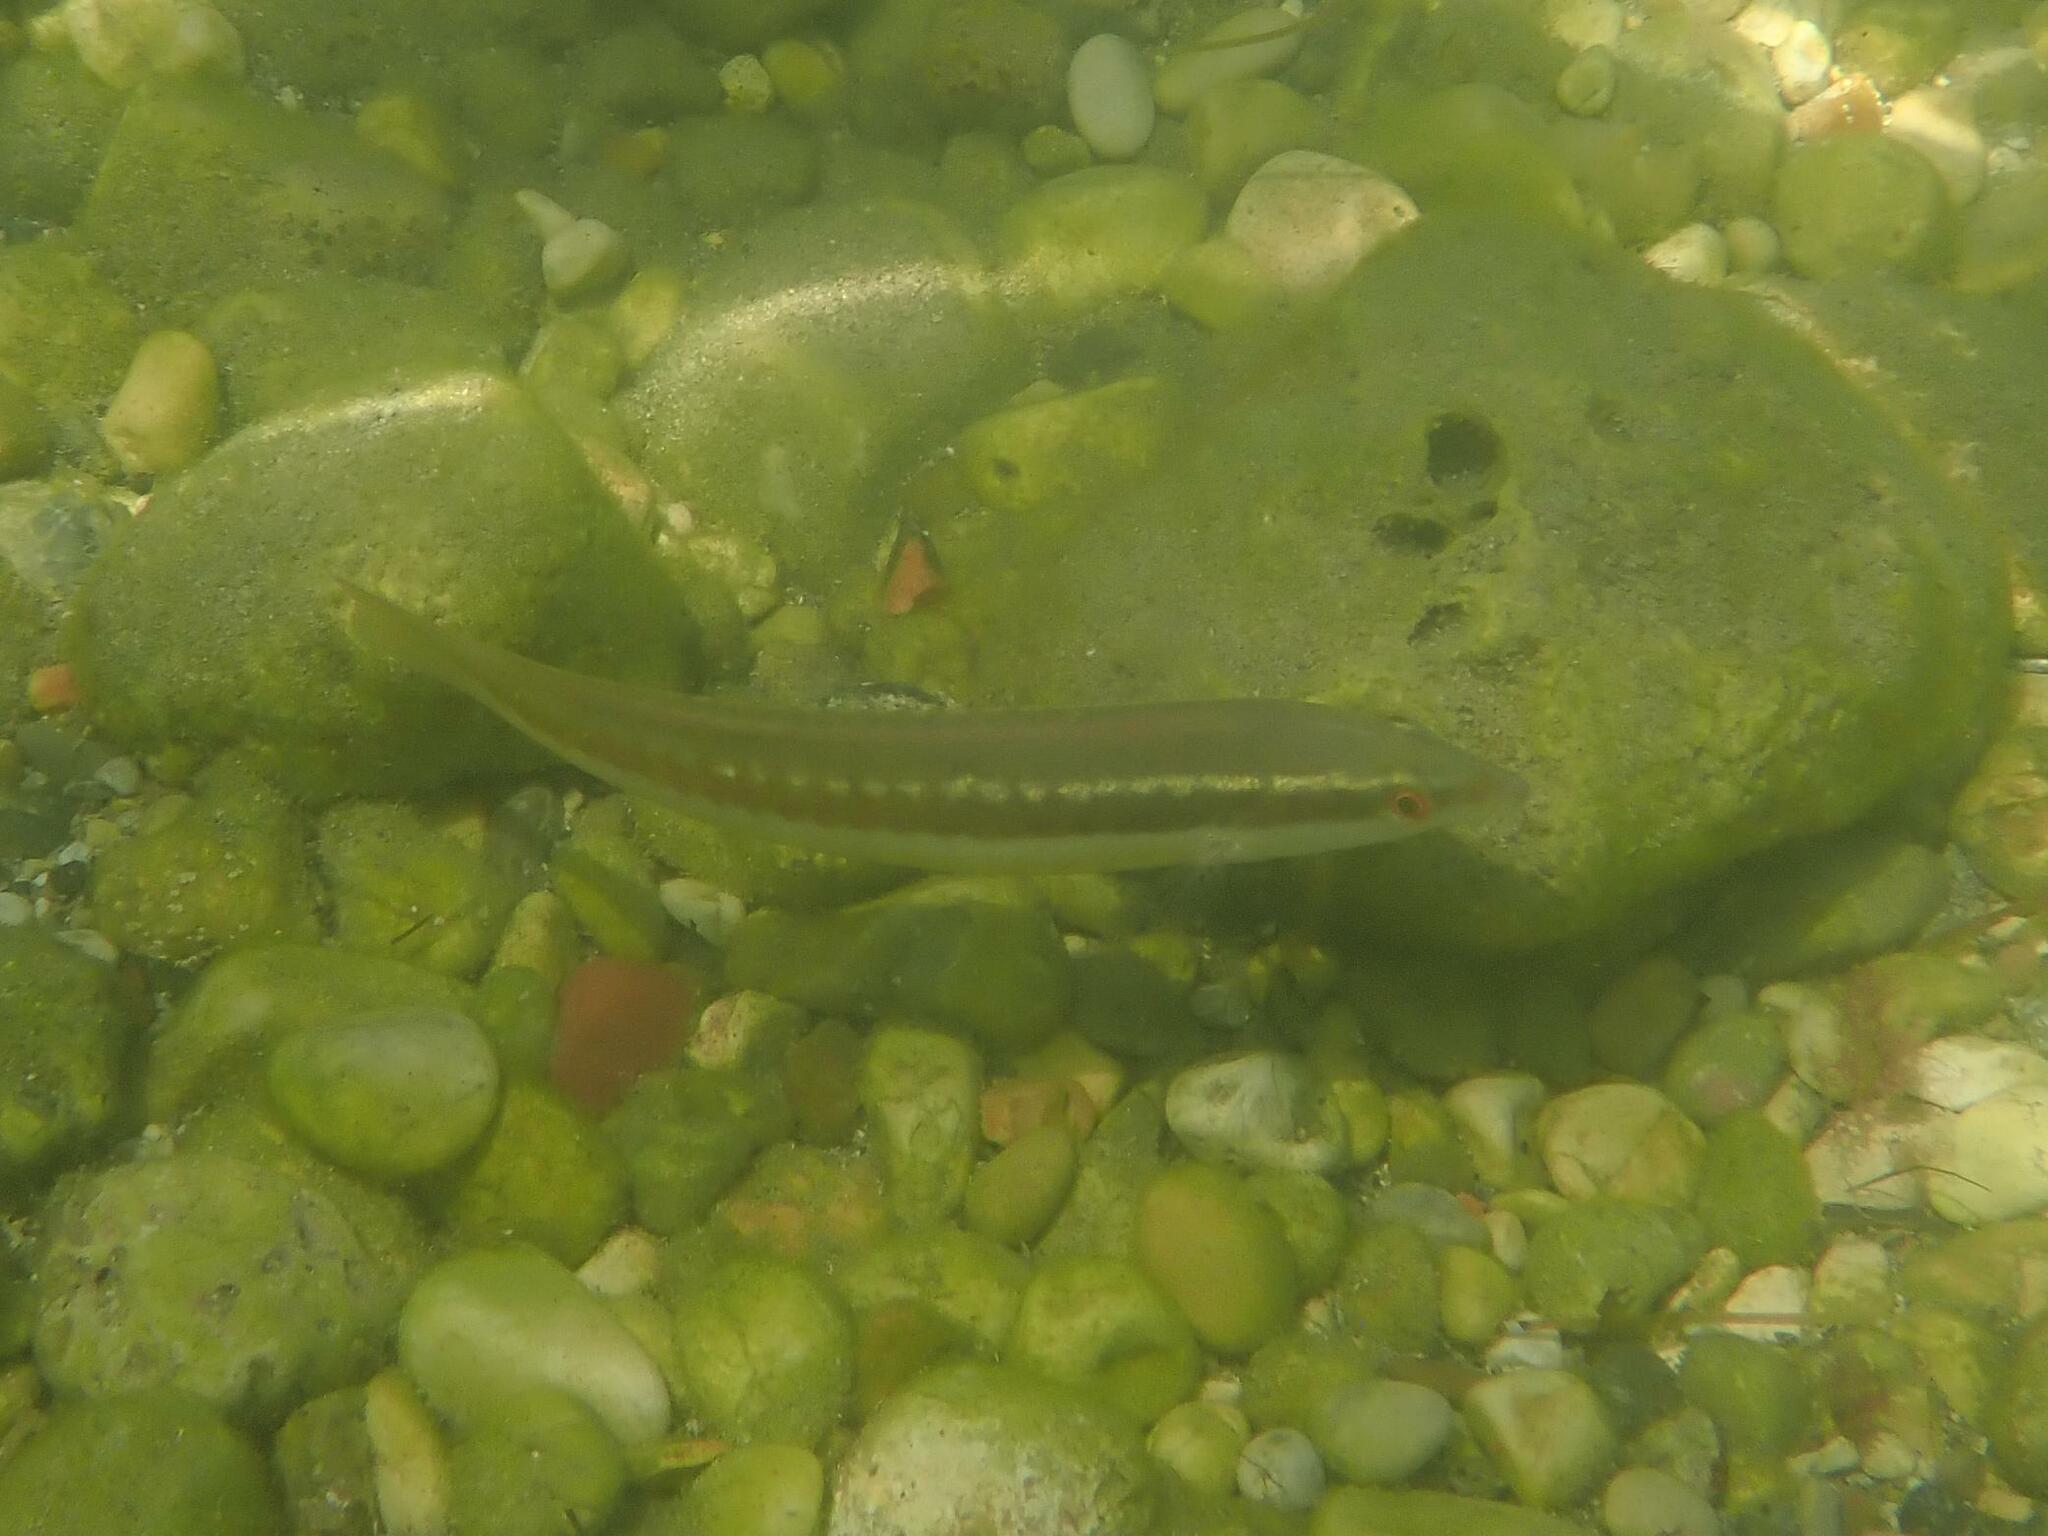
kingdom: Animalia
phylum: Chordata
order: Perciformes
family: Labridae
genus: Coris
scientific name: Coris julis
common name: Rainbow wrasse
